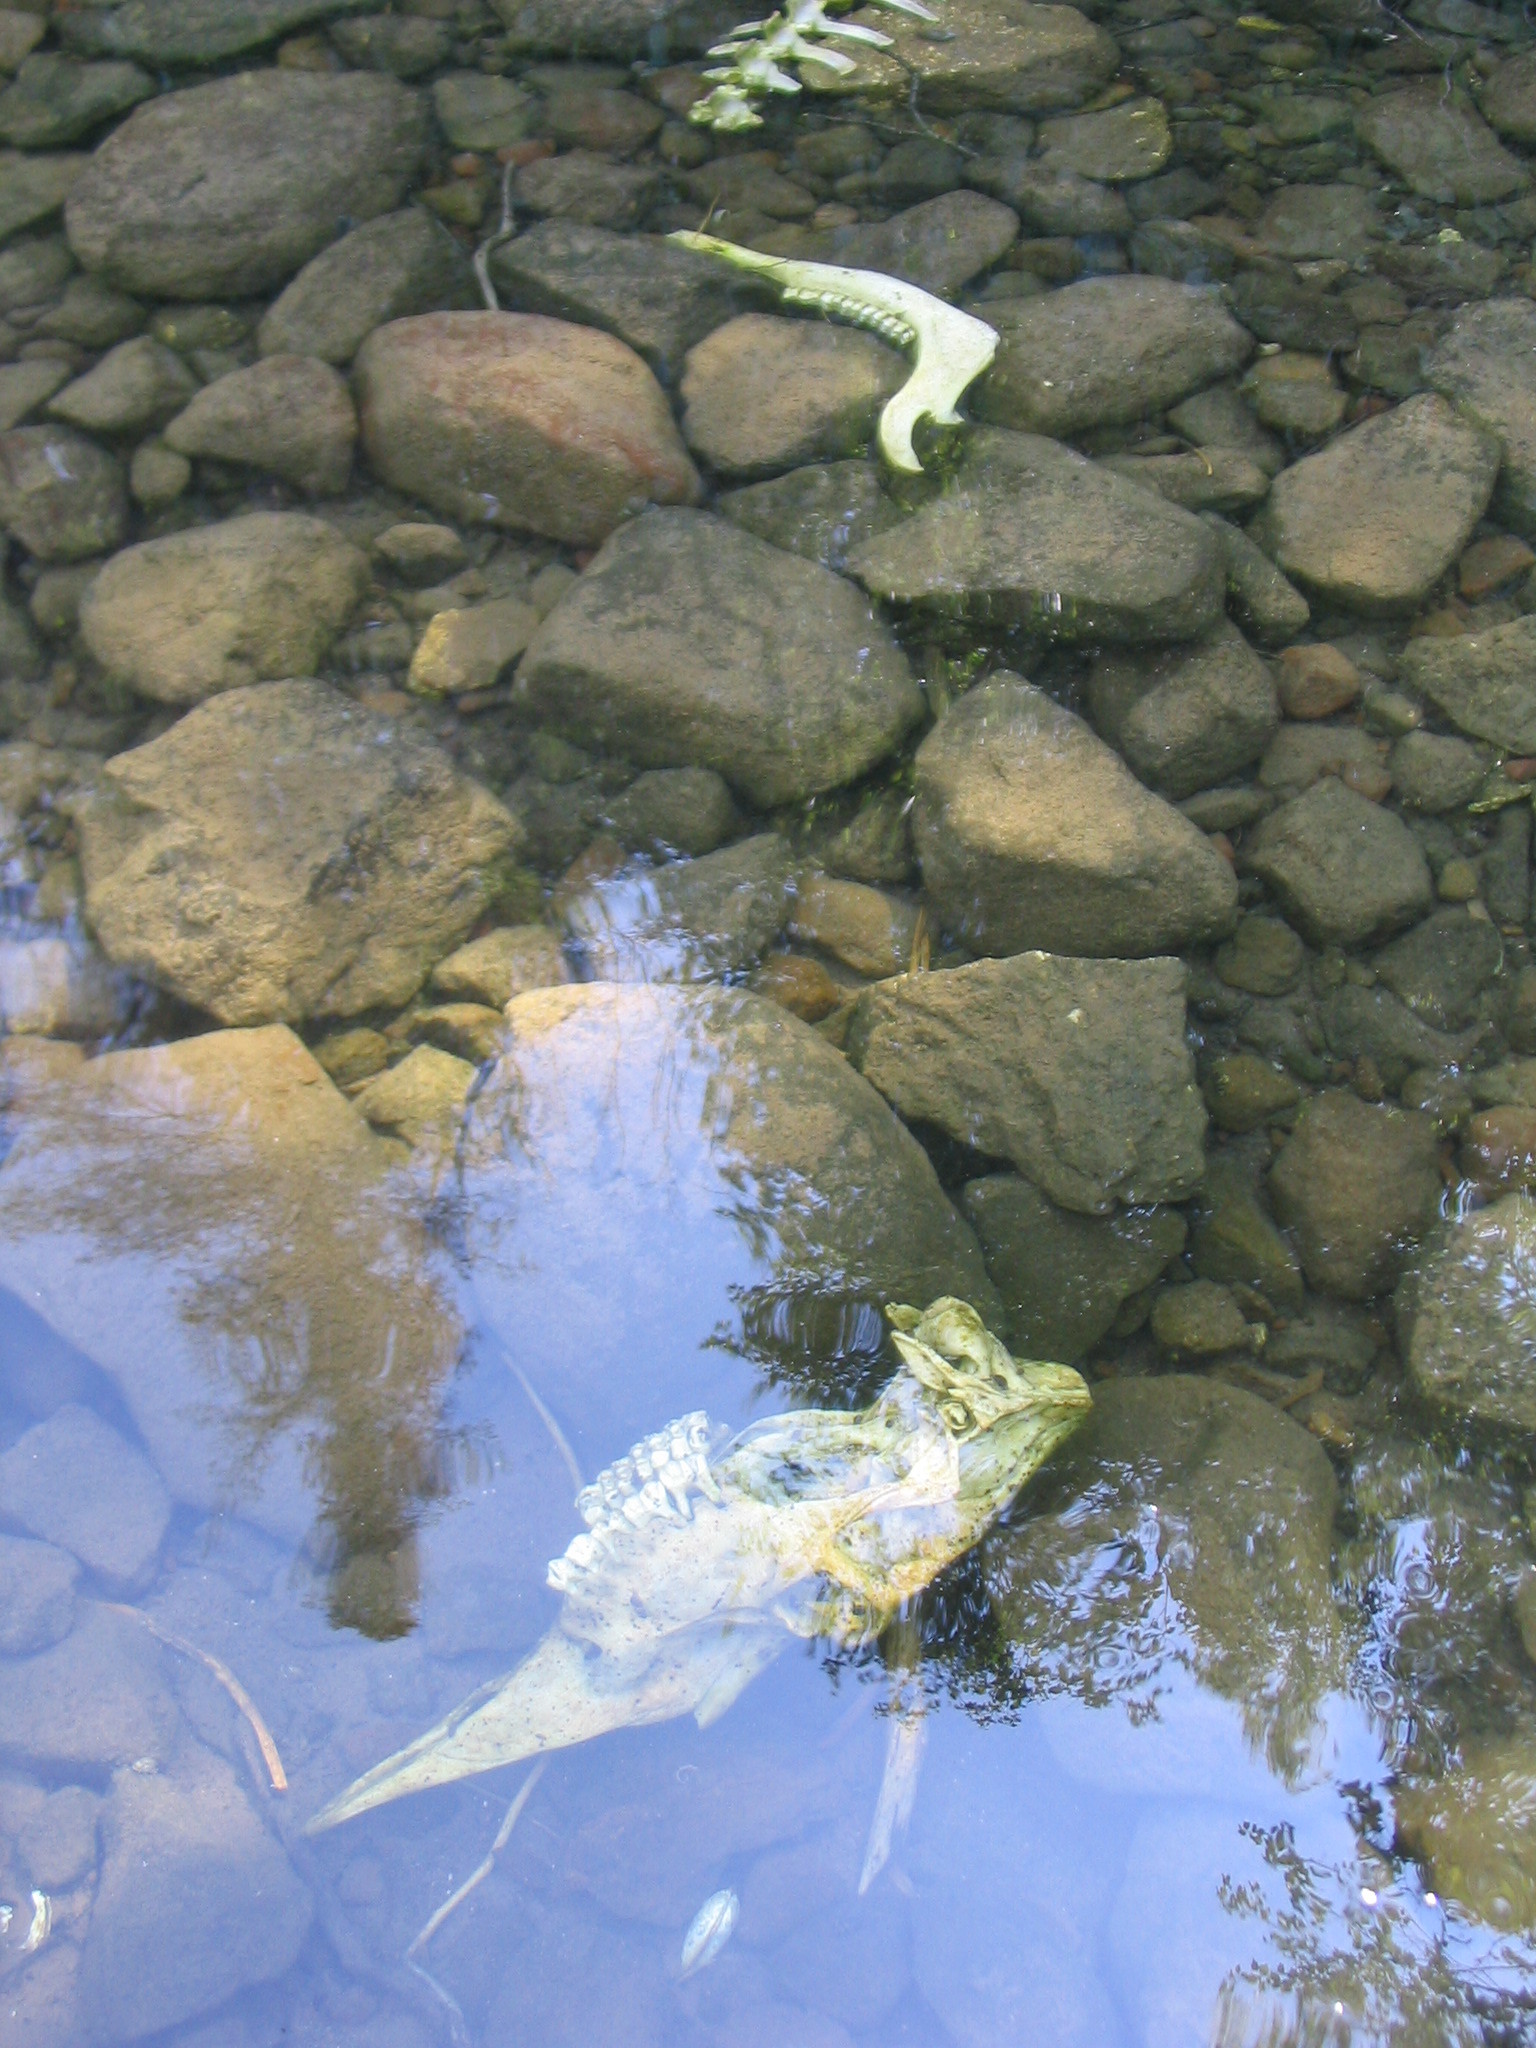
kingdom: Animalia
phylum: Chordata
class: Mammalia
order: Artiodactyla
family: Cervidae
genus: Alces
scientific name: Alces alces
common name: Moose
